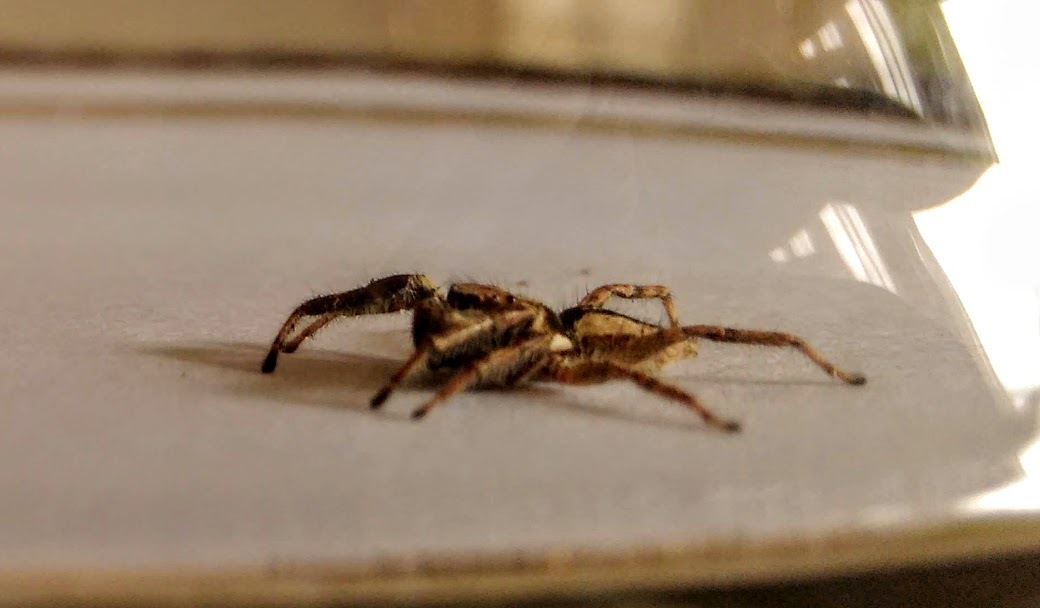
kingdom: Animalia
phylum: Arthropoda
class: Arachnida
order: Araneae
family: Salticidae
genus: Menemerus
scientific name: Menemerus bivittatus
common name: Gray wall jumper
